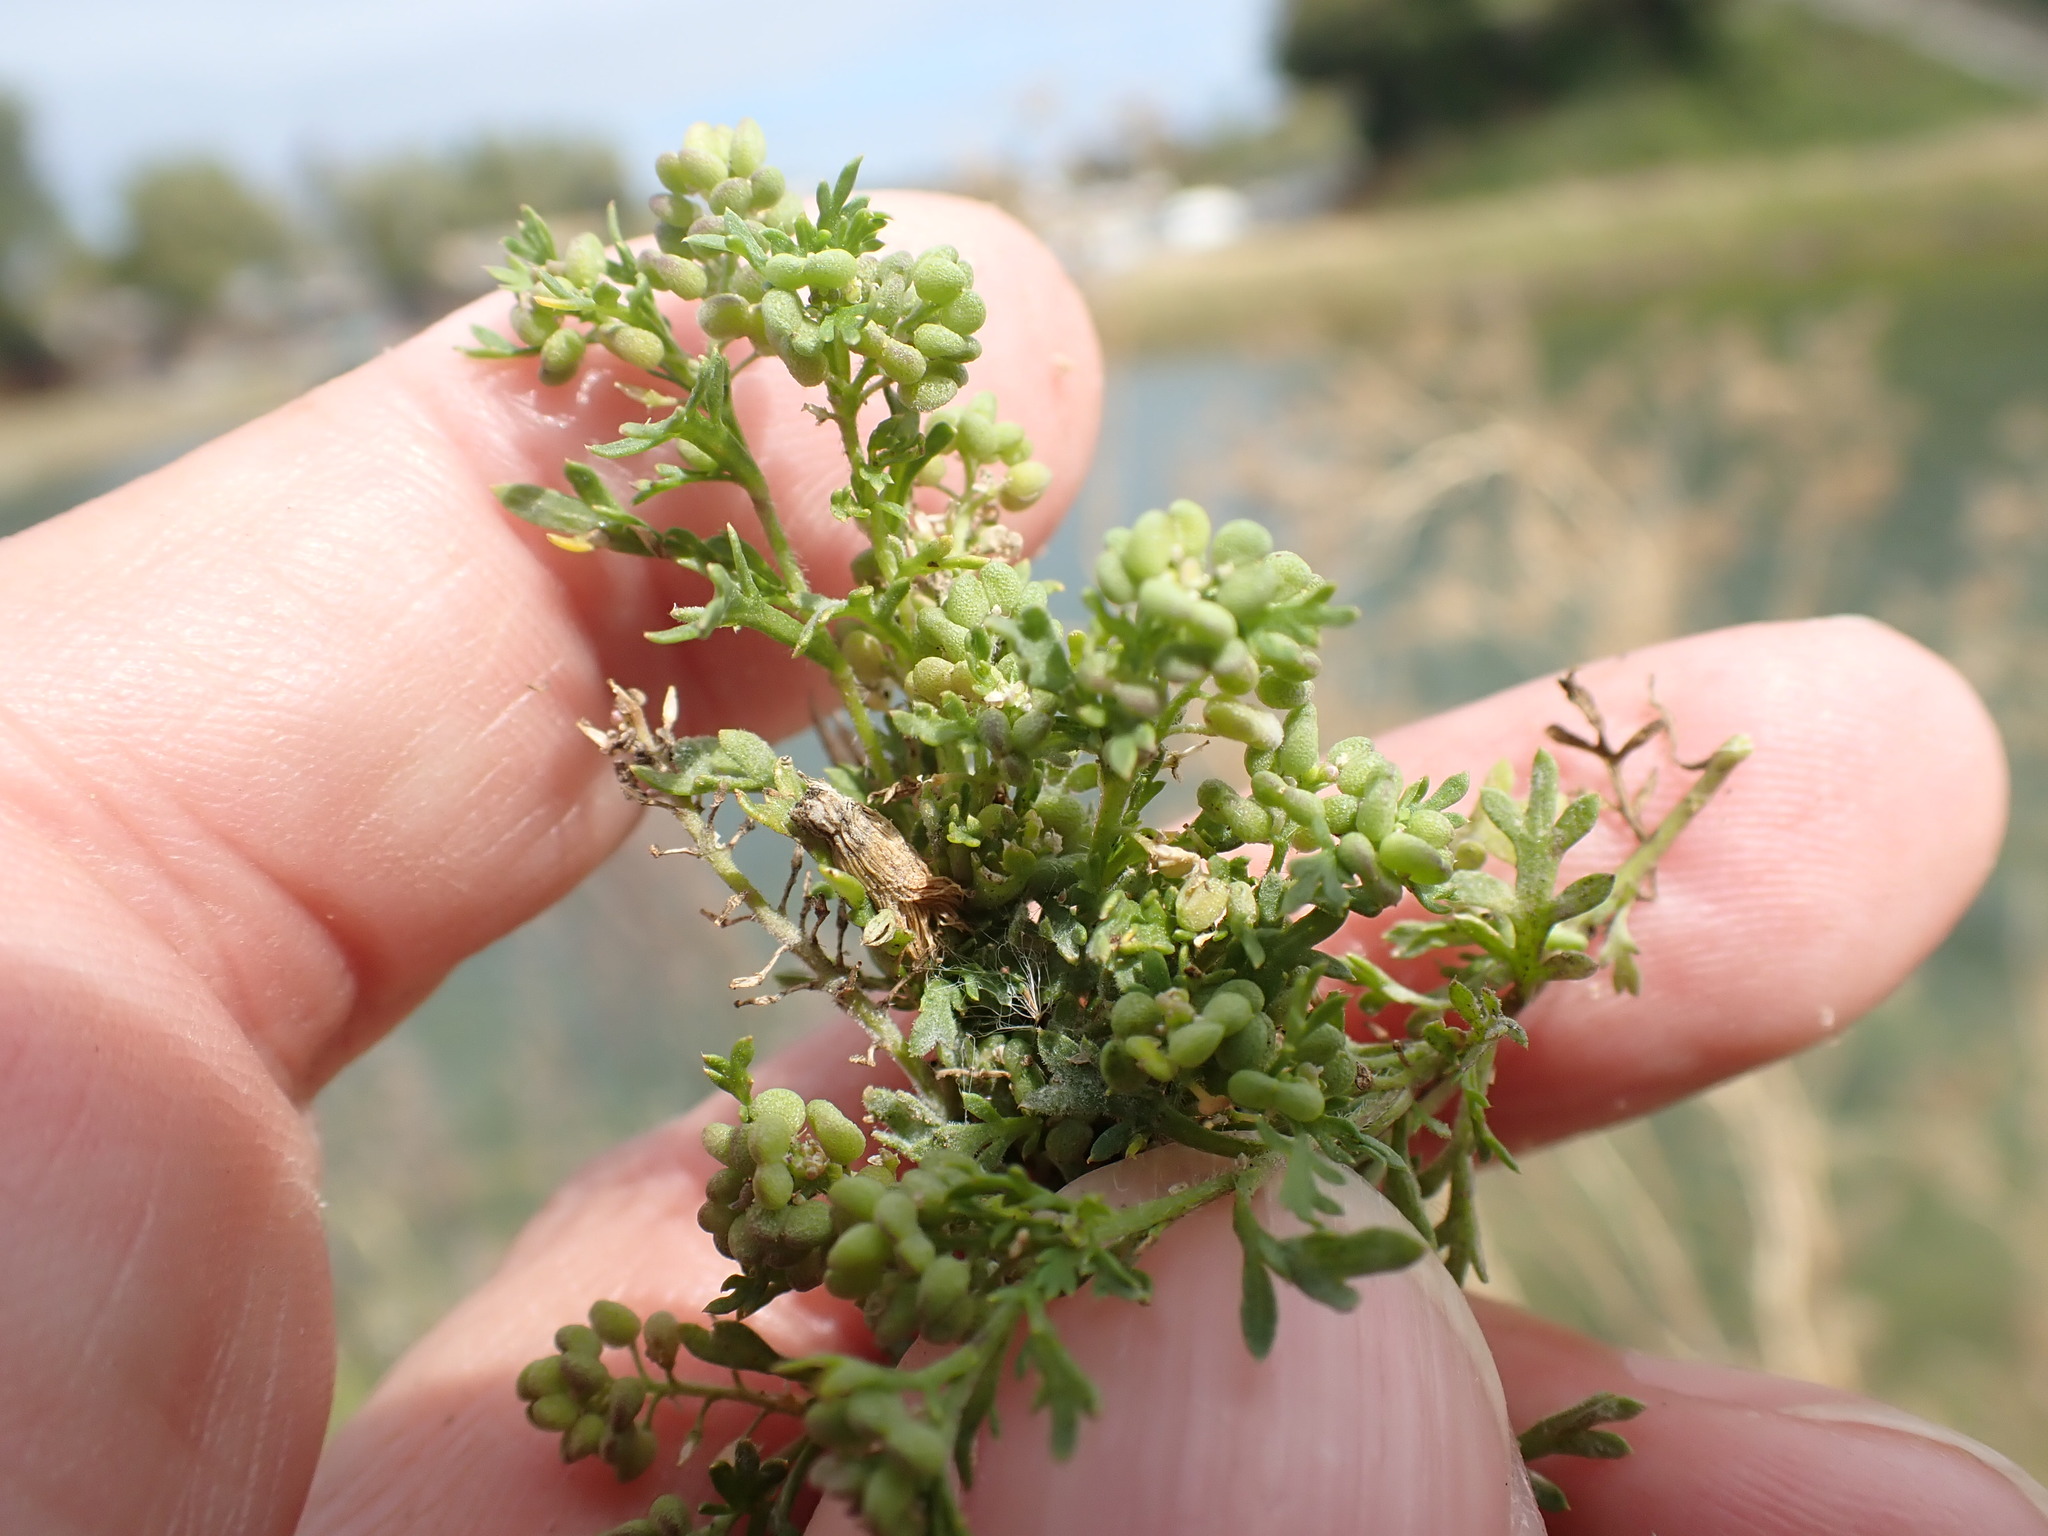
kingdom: Plantae
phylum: Tracheophyta
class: Magnoliopsida
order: Brassicales
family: Brassicaceae
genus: Lepidium
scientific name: Lepidium didymum
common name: Lesser swinecress
